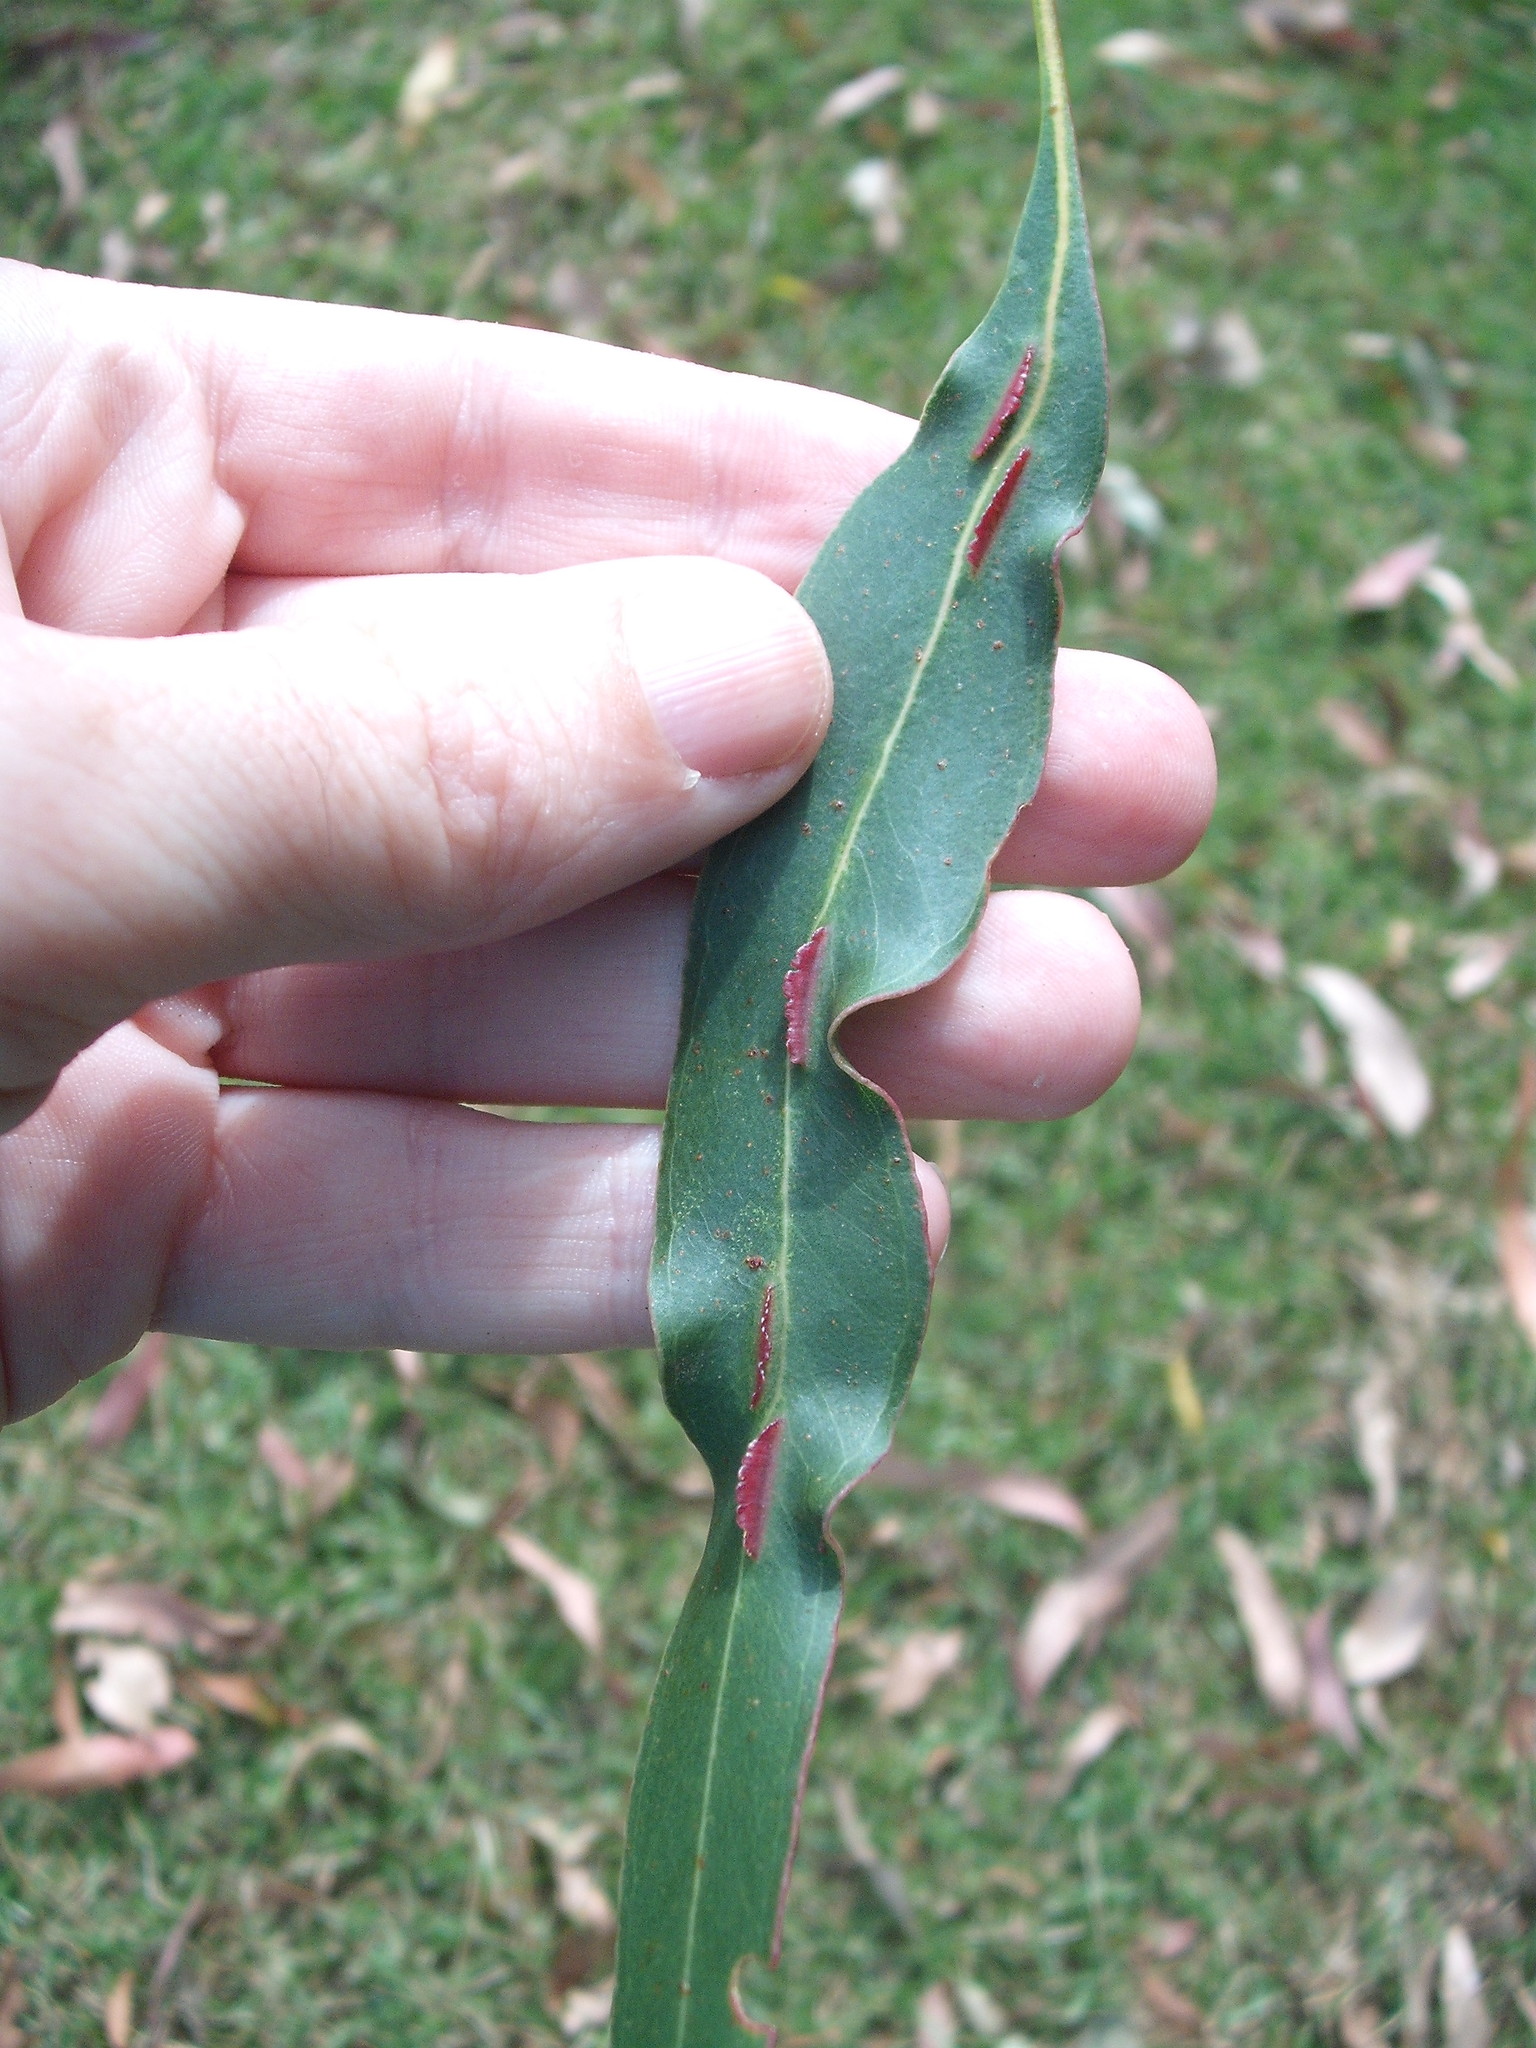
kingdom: Animalia
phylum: Arthropoda
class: Insecta
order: Hymenoptera
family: Pteromalidae
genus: Nambouria
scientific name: Nambouria xanthops
